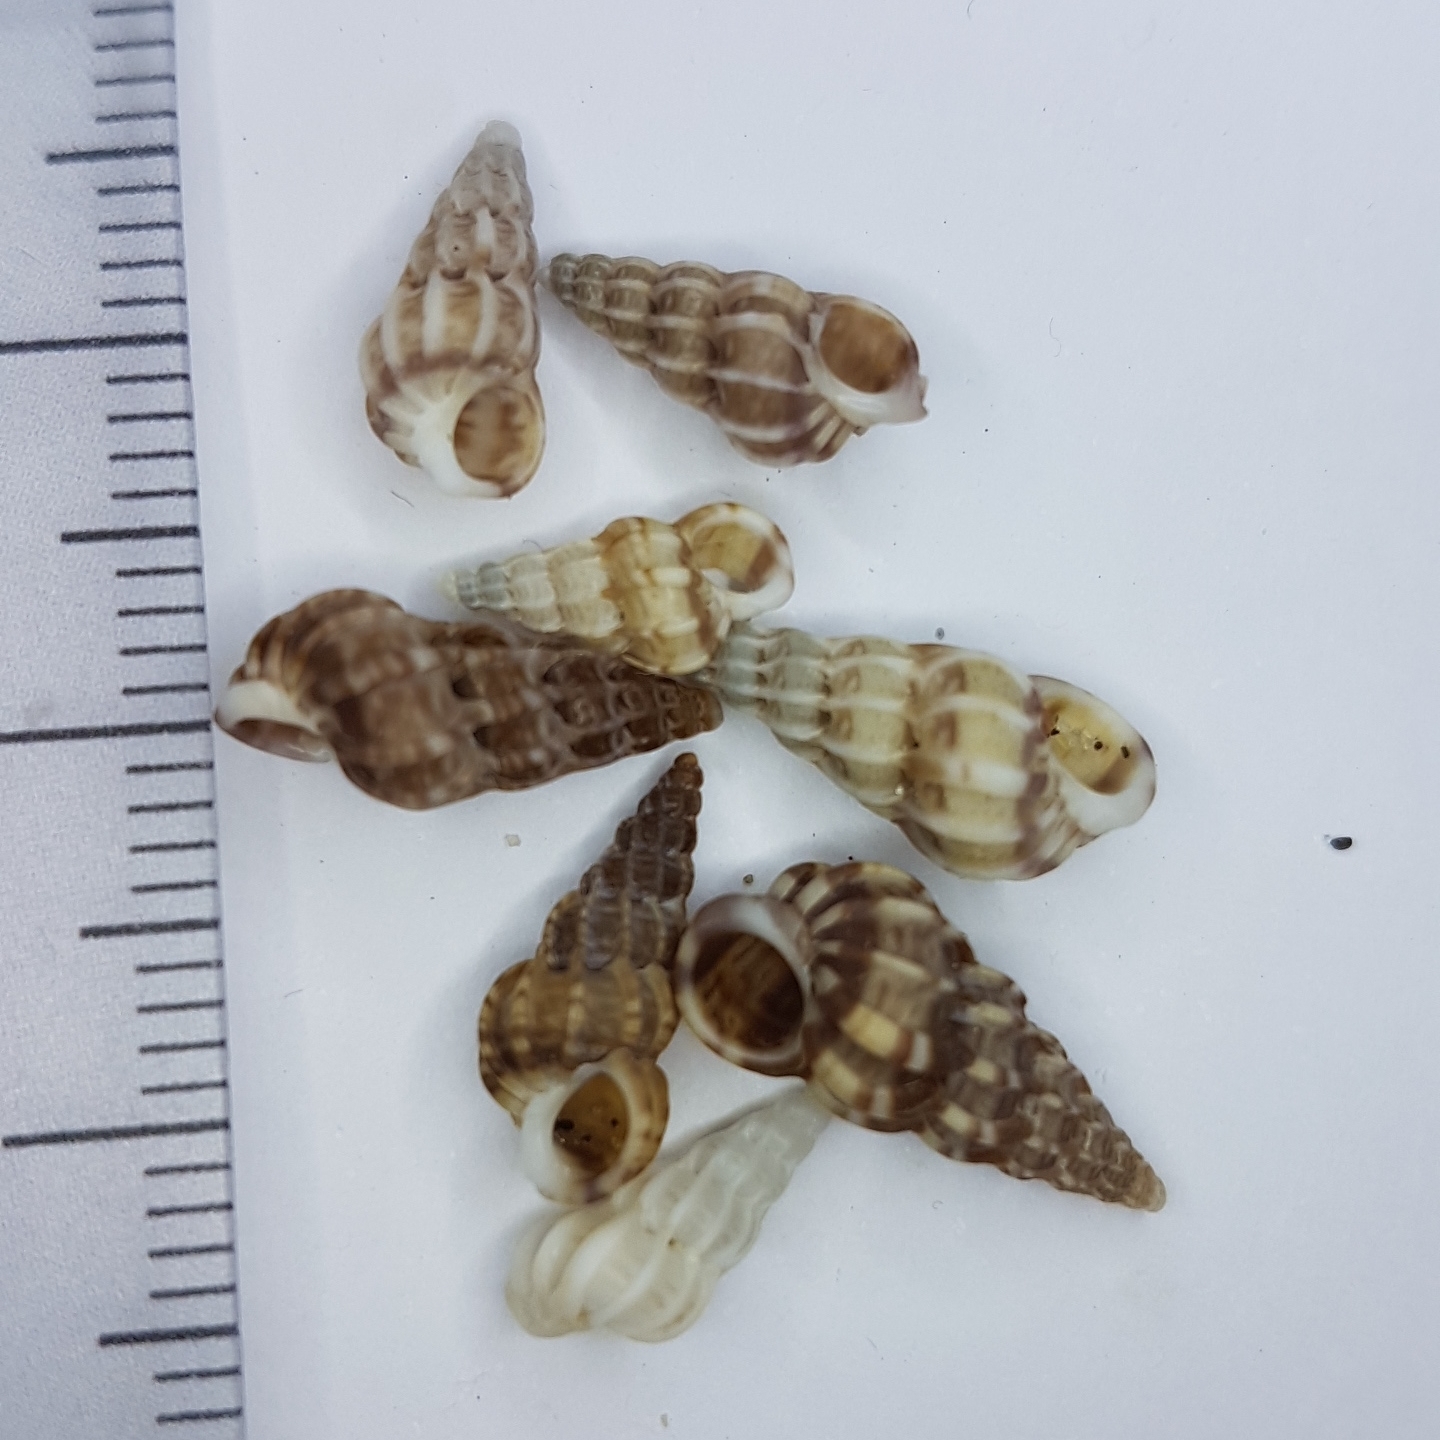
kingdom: Animalia
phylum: Mollusca
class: Gastropoda
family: Epitoniidae
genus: Epitonium
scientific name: Epitonium clathrus
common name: Common wentletrap
